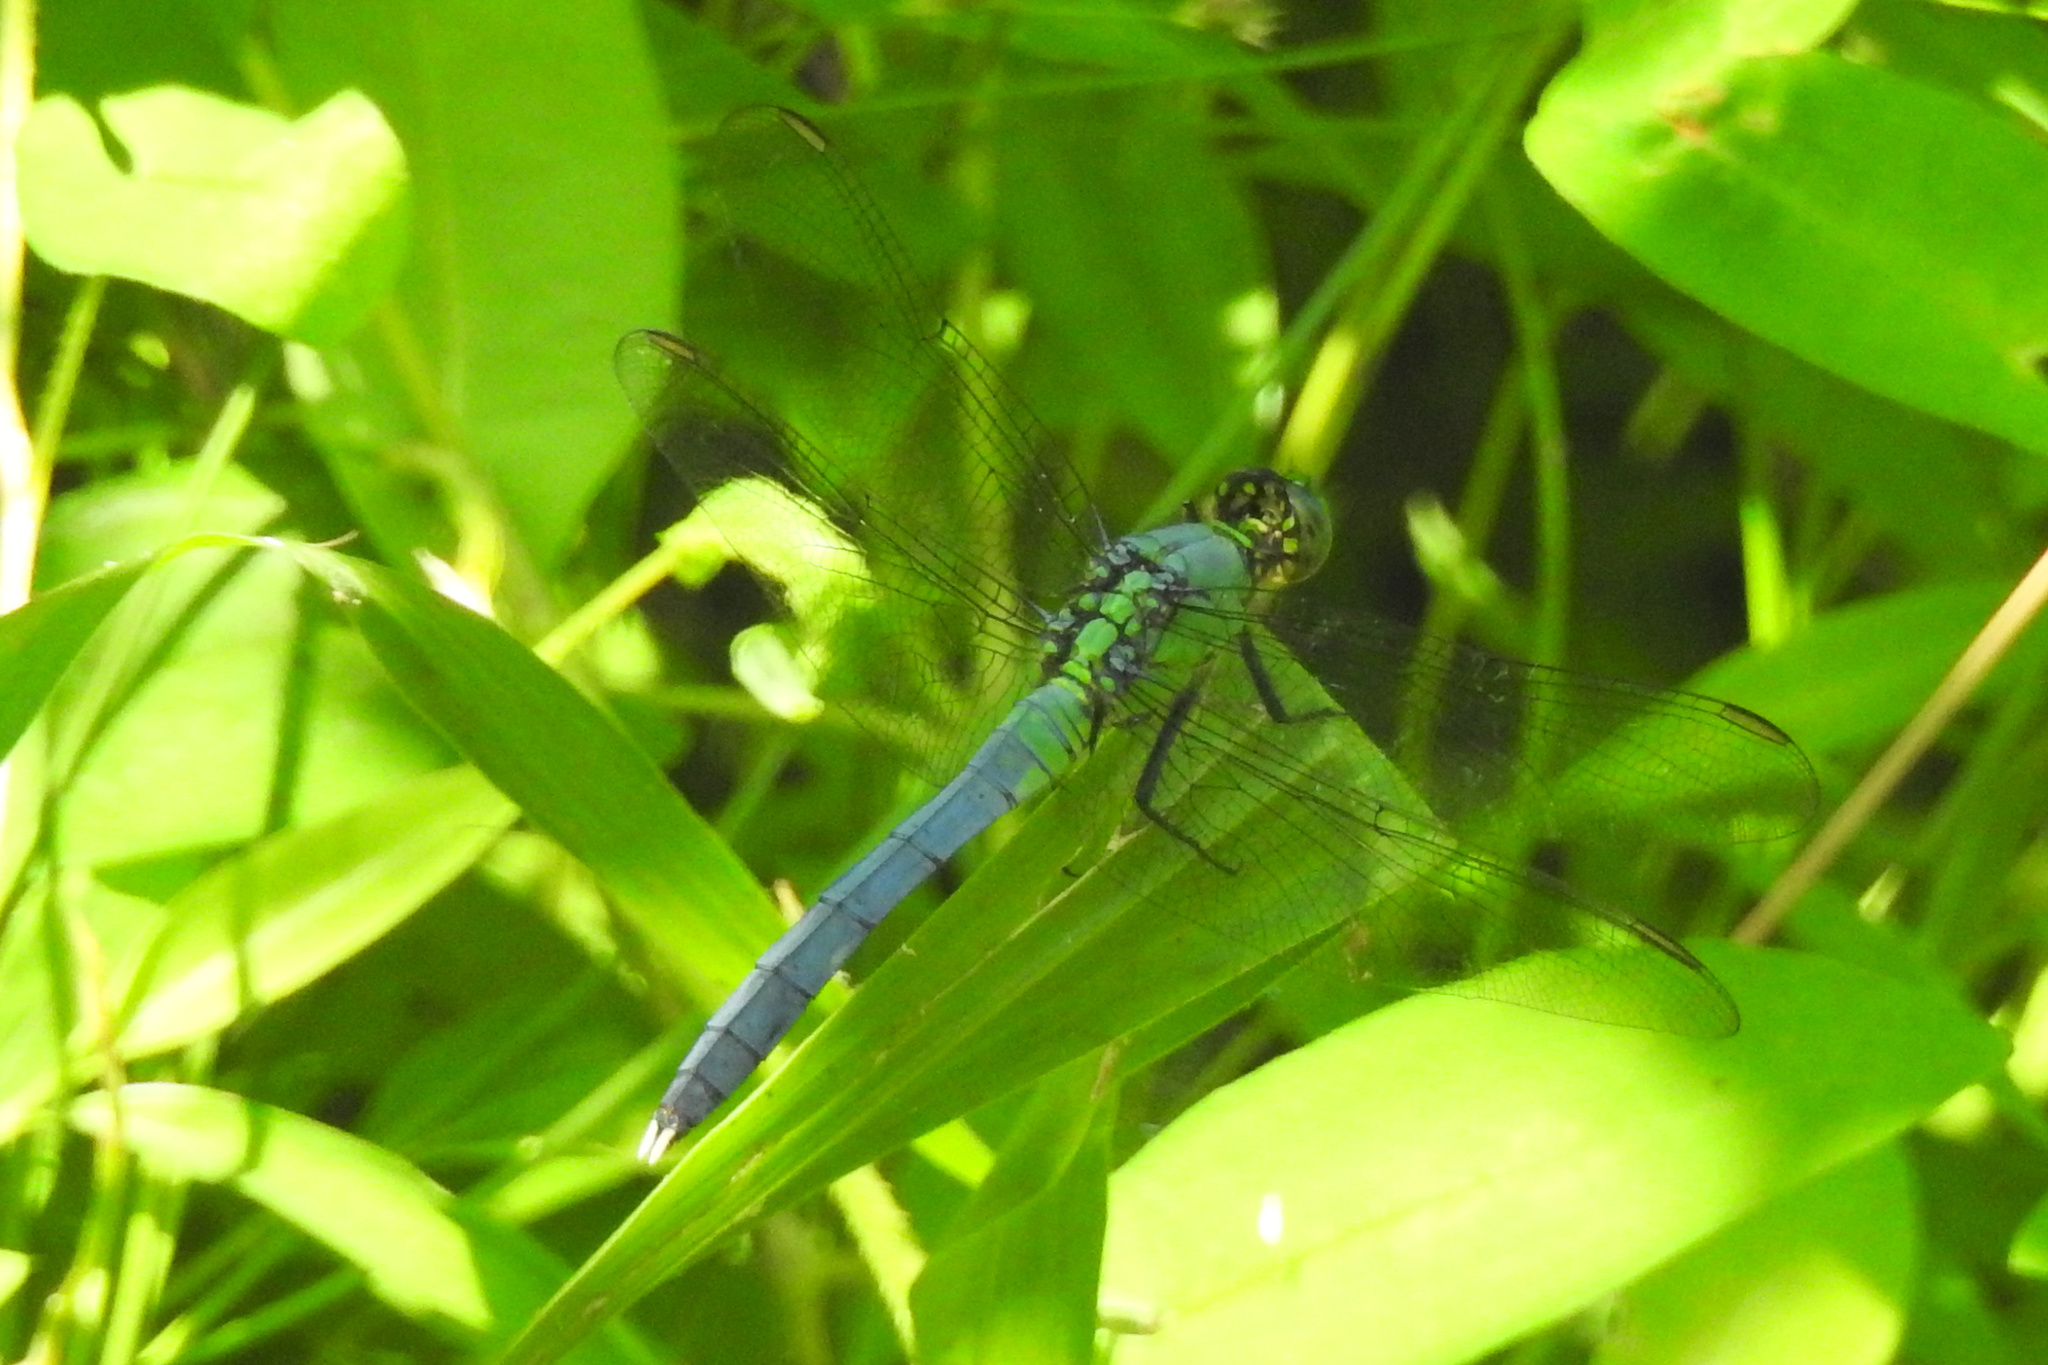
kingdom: Animalia
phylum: Arthropoda
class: Insecta
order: Odonata
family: Libellulidae
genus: Erythemis
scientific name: Erythemis simplicicollis
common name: Eastern pondhawk
